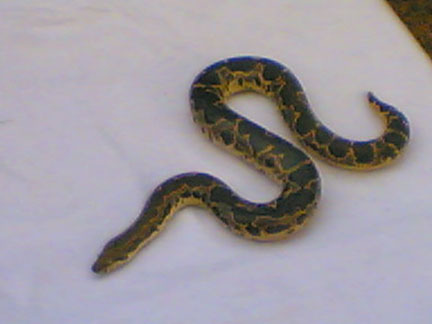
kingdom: Animalia
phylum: Chordata
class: Squamata
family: Boidae
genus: Eryx
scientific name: Eryx conicus
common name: Rough-tailed sand boa
